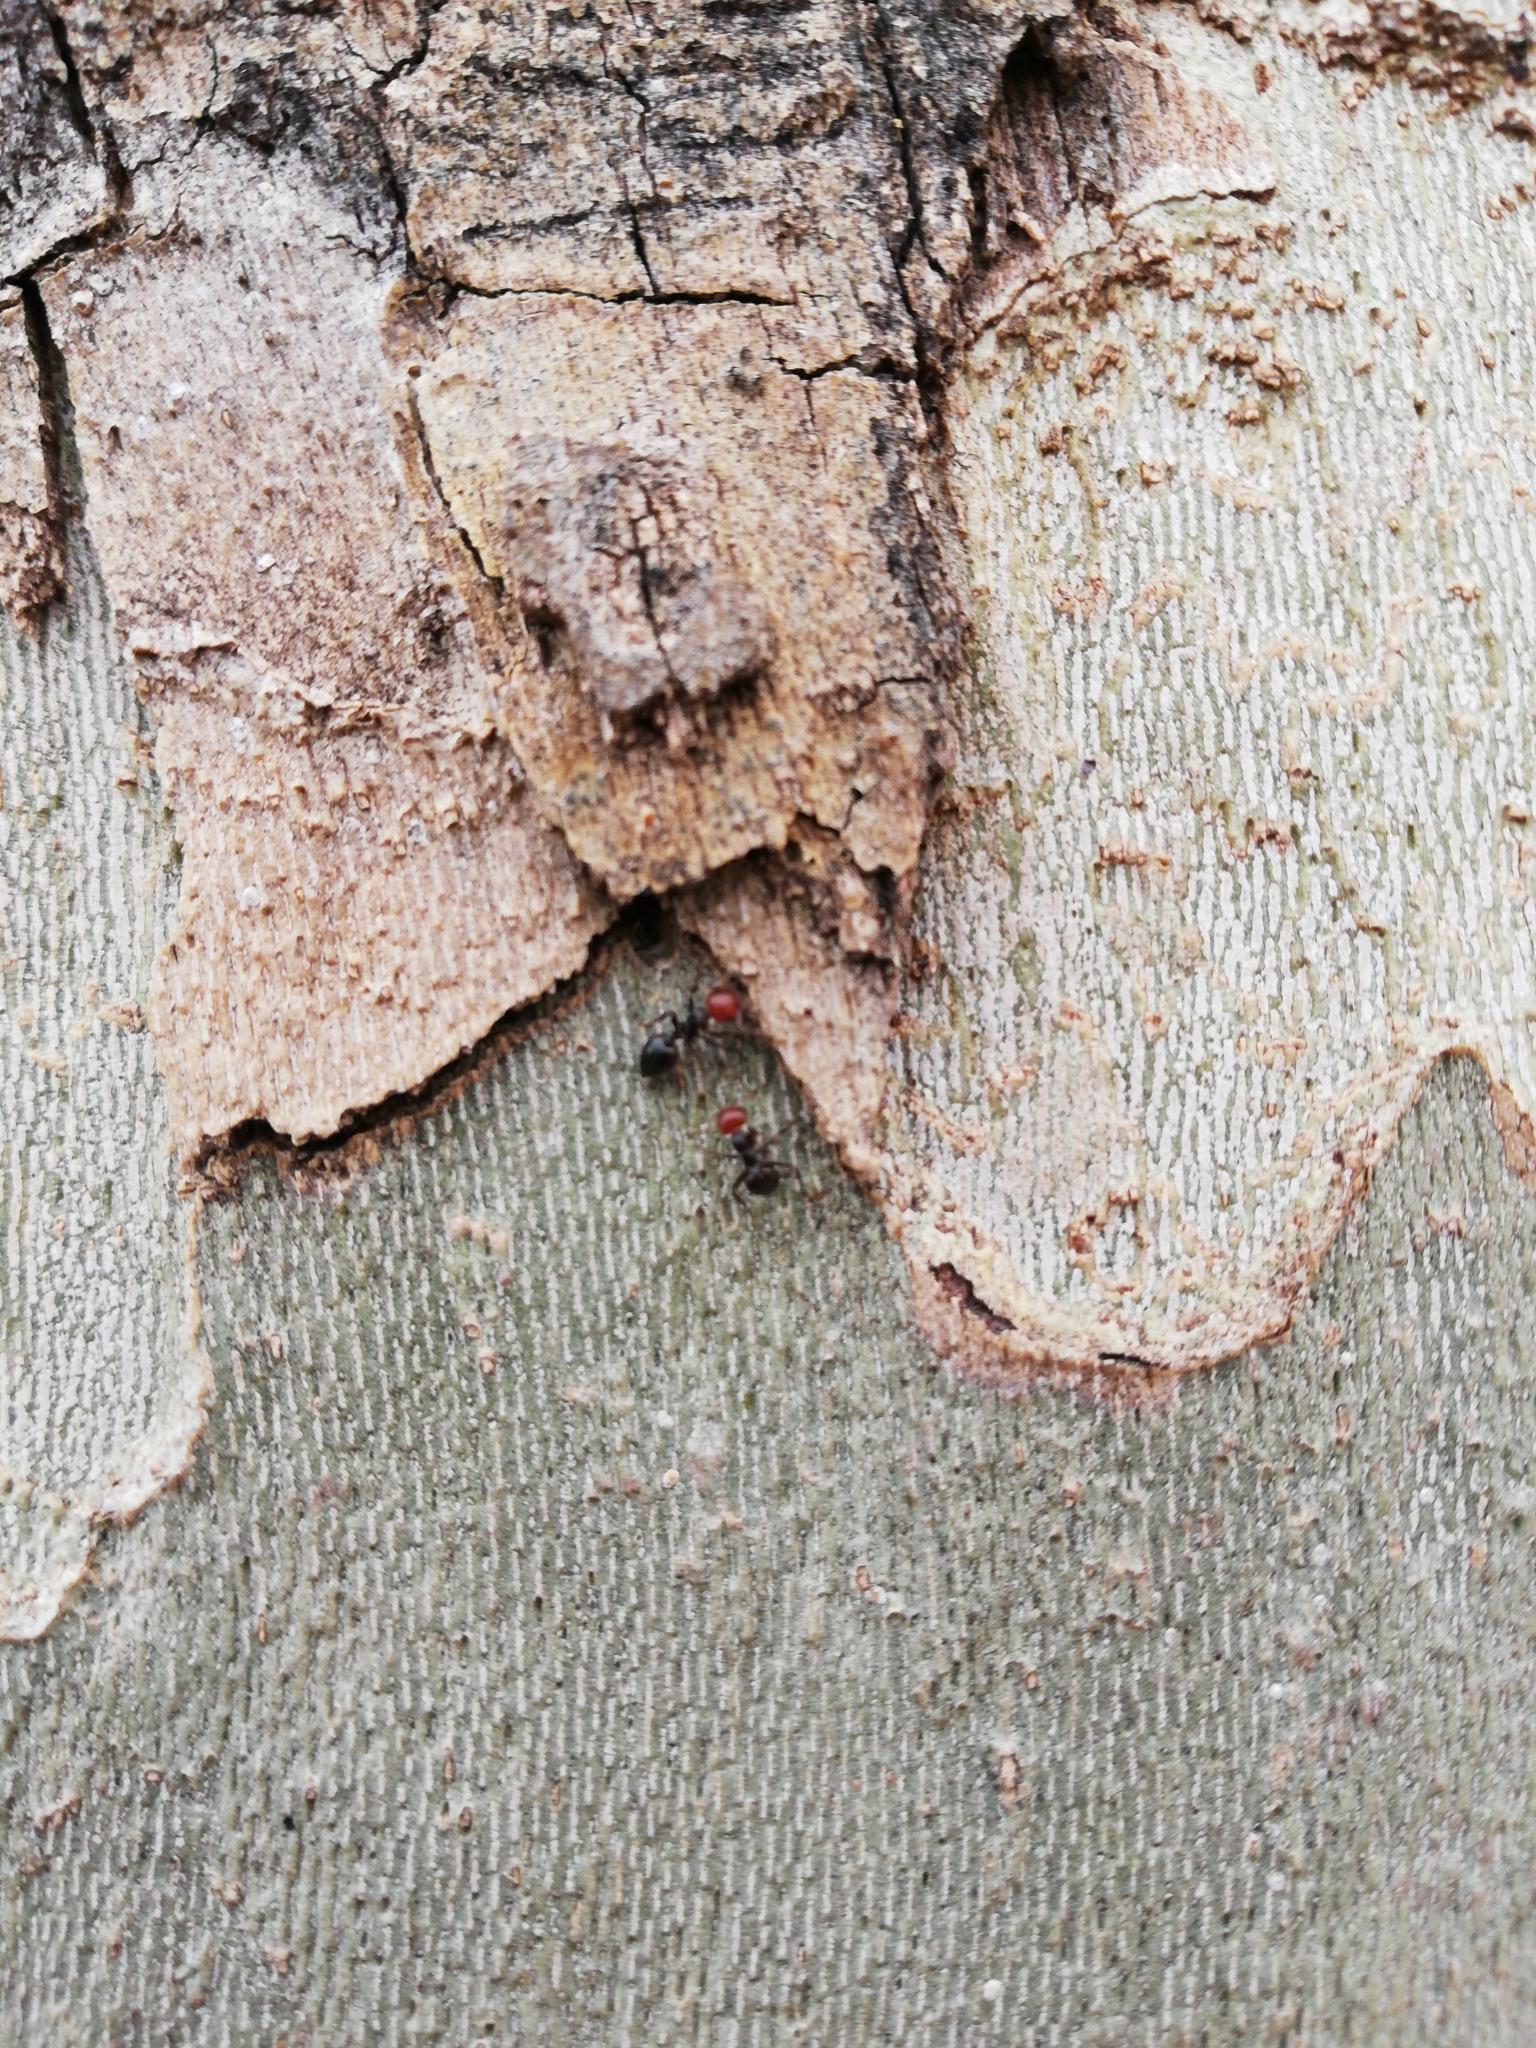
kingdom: Animalia
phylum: Arthropoda
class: Insecta
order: Hymenoptera
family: Formicidae
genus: Crematogaster
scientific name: Crematogaster scutellaris
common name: Fourmi du liège
